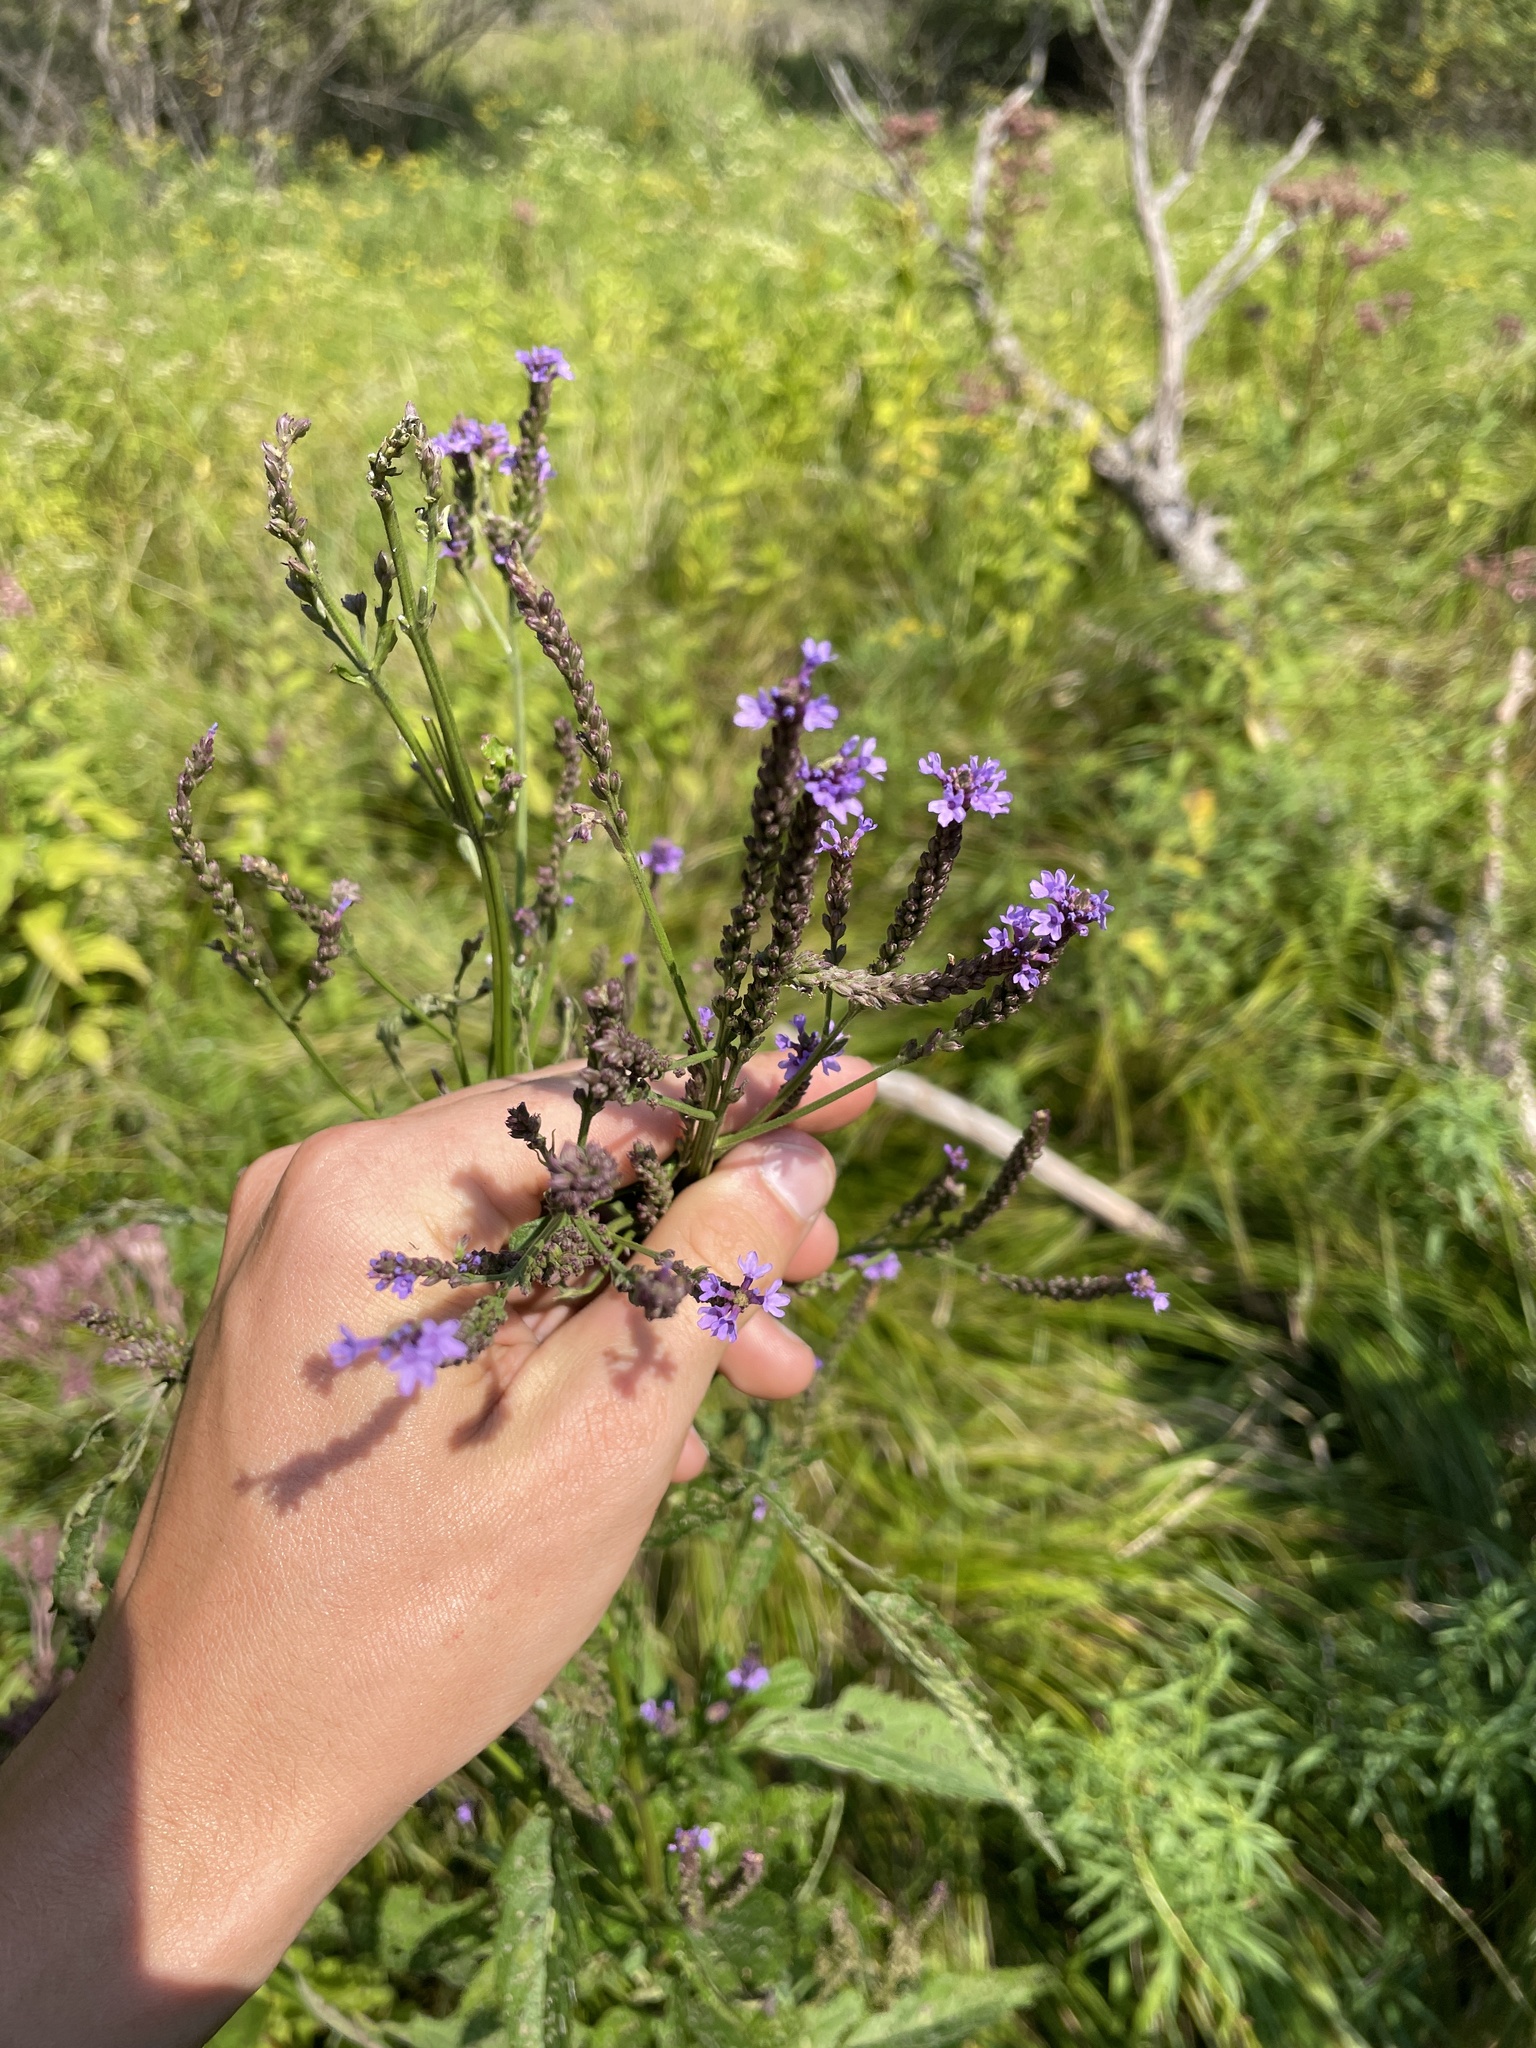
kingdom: Plantae
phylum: Tracheophyta
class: Magnoliopsida
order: Lamiales
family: Verbenaceae
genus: Verbena
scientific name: Verbena hastata
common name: American blue vervain
